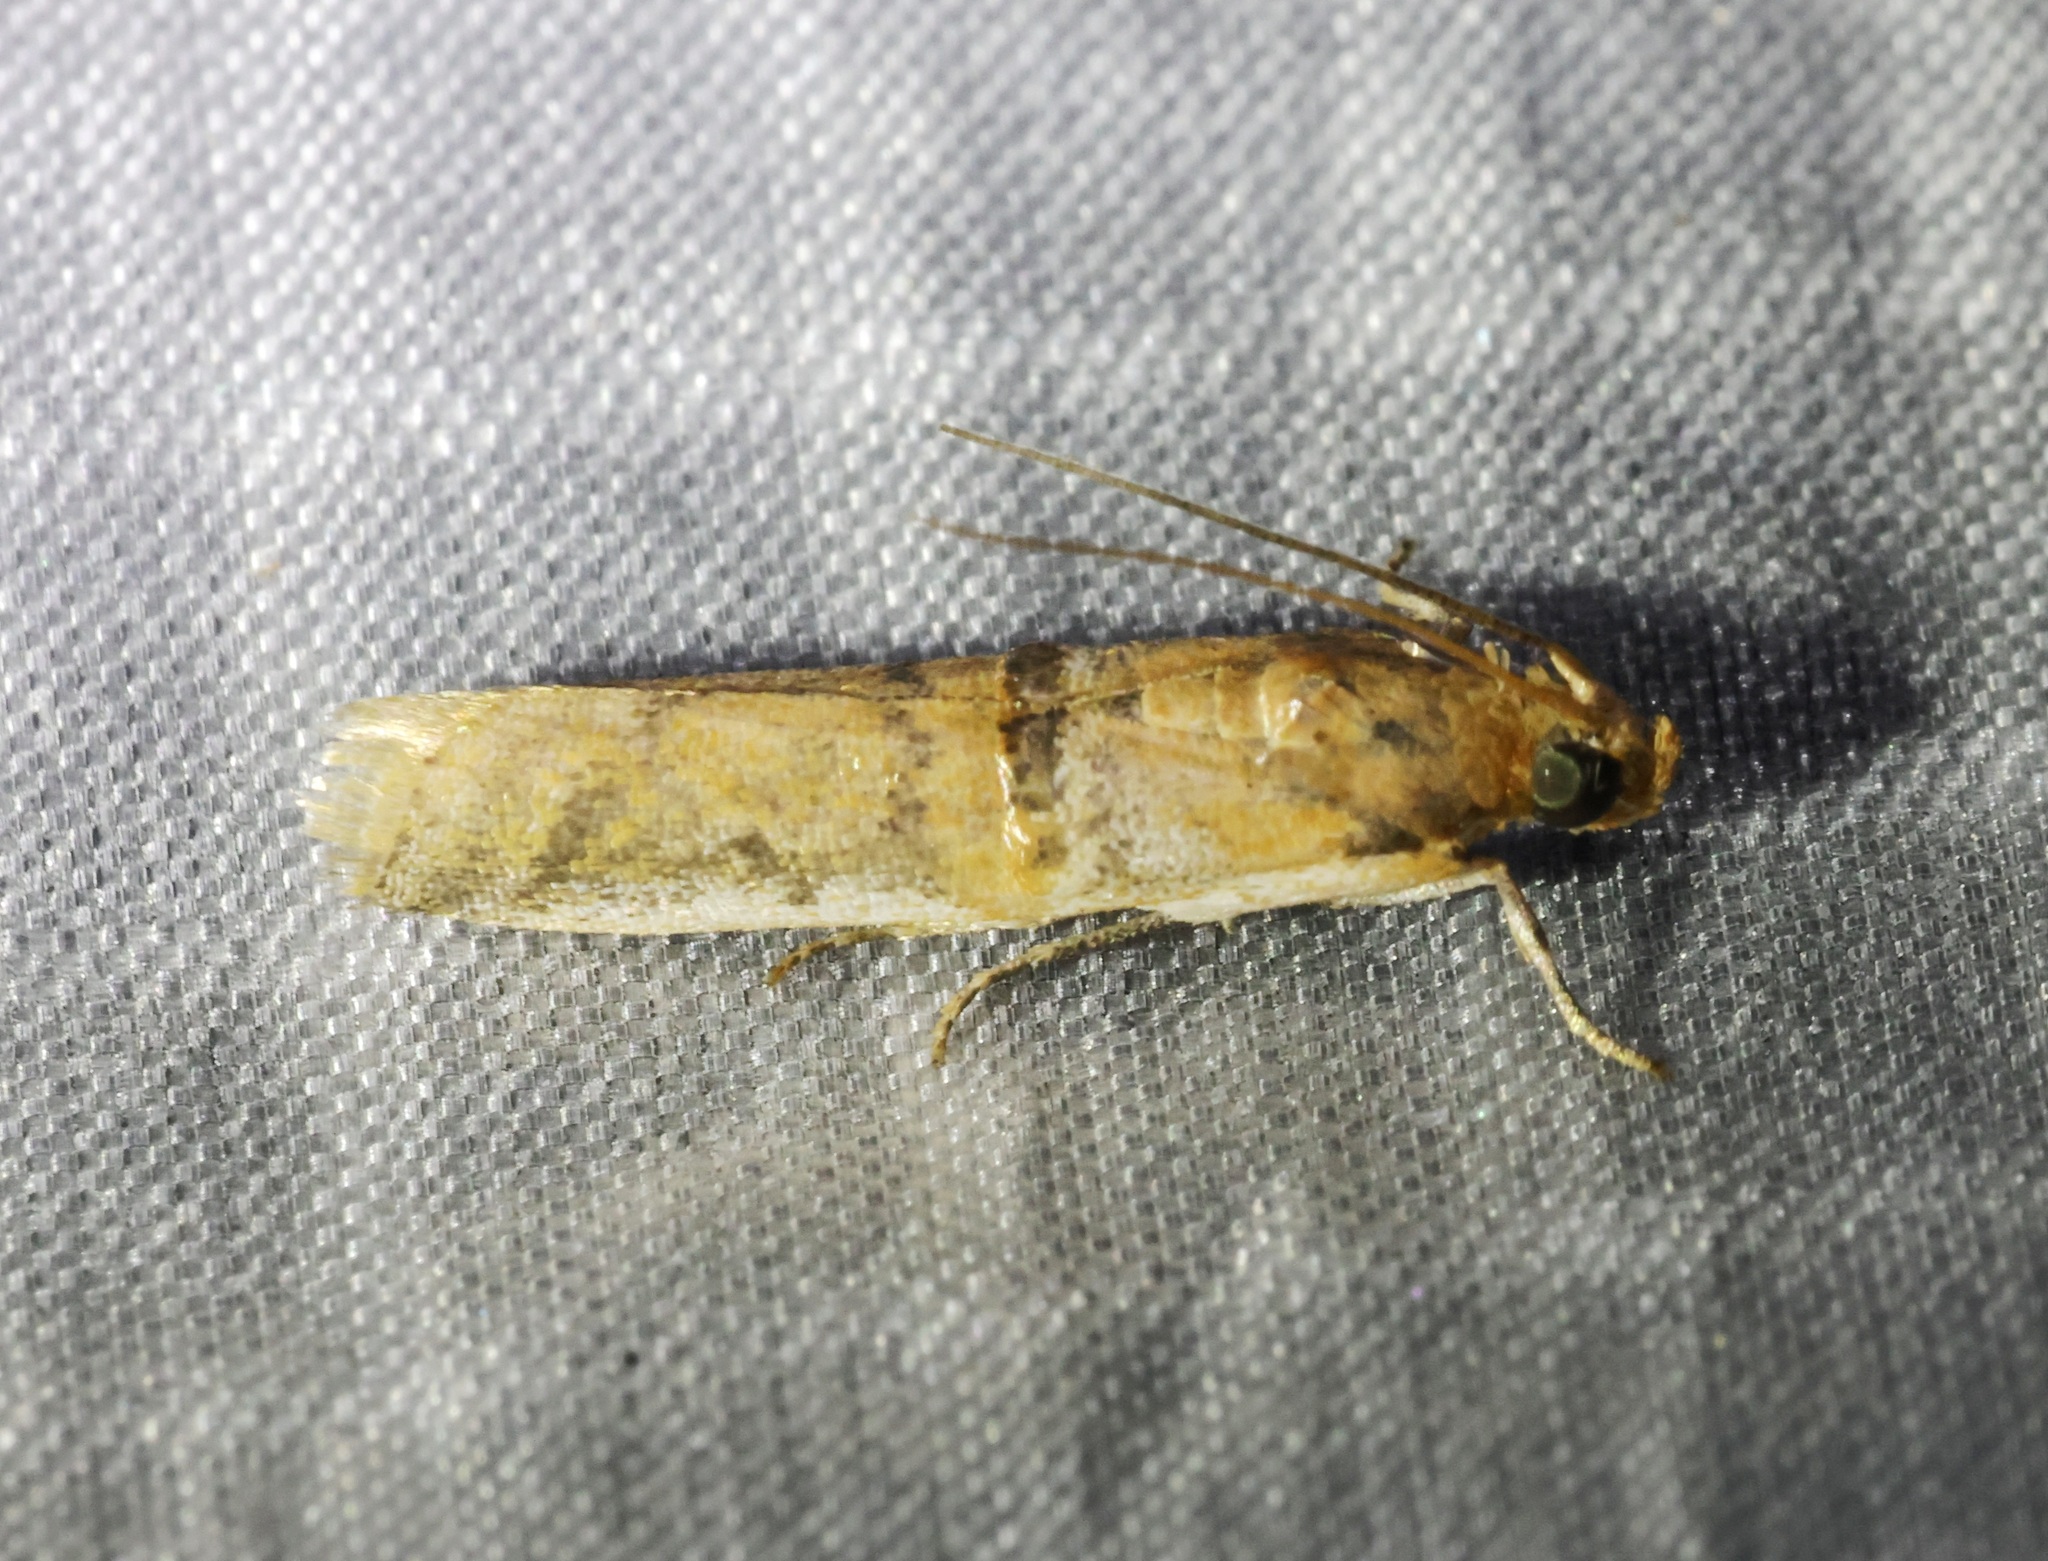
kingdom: Animalia
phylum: Arthropoda
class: Insecta
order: Lepidoptera
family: Pyralidae
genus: Hypargyria
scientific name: Hypargyria metalliferella
